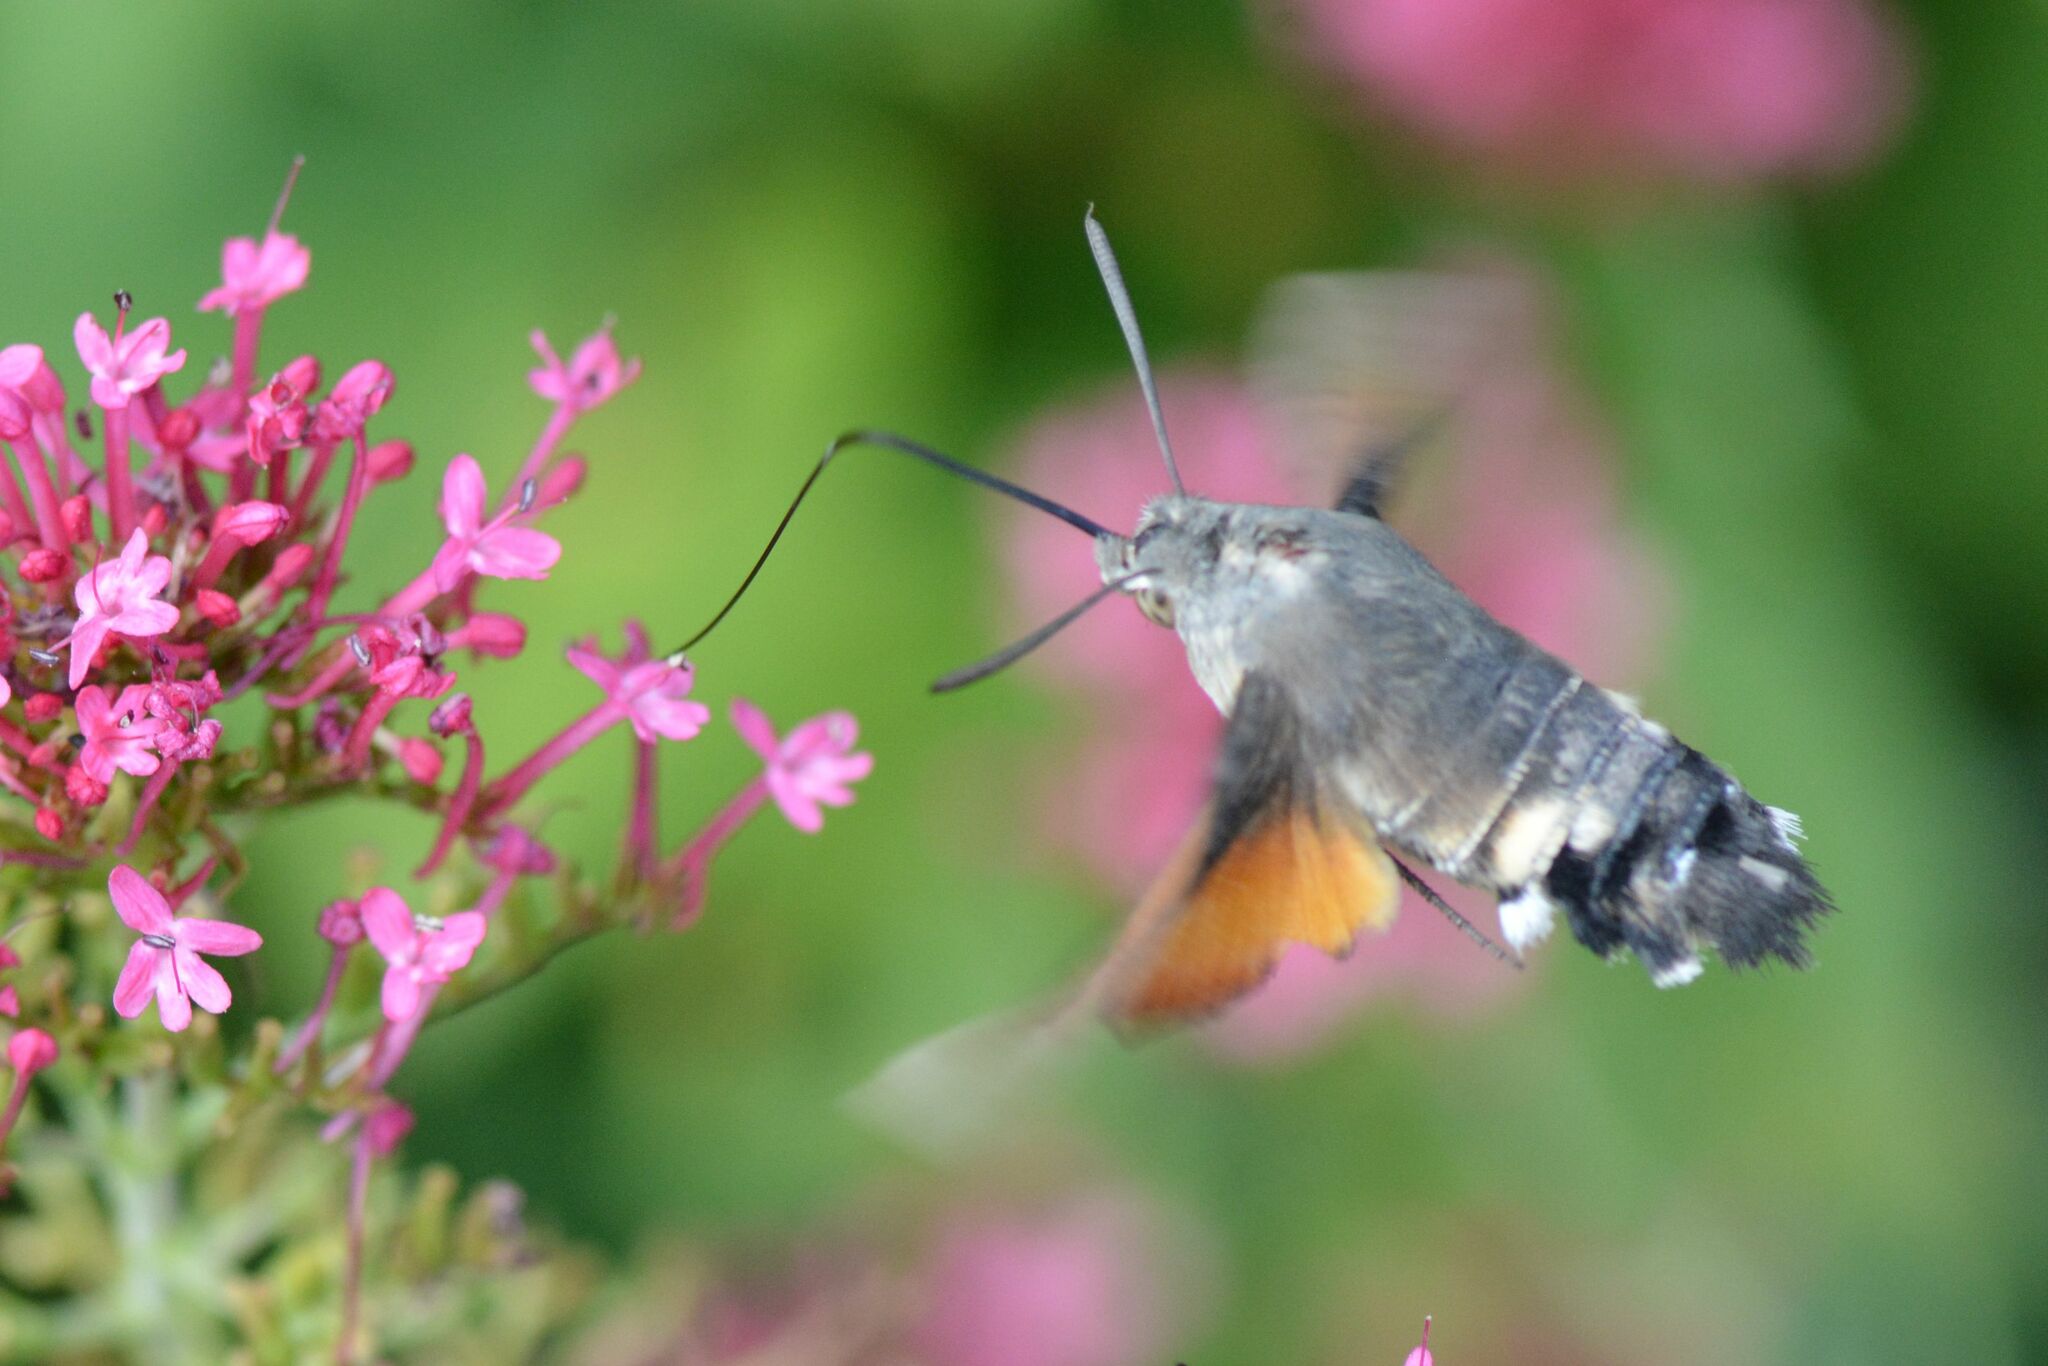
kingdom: Animalia
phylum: Arthropoda
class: Insecta
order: Lepidoptera
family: Sphingidae
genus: Macroglossum
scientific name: Macroglossum stellatarum
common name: Humming-bird hawk-moth
